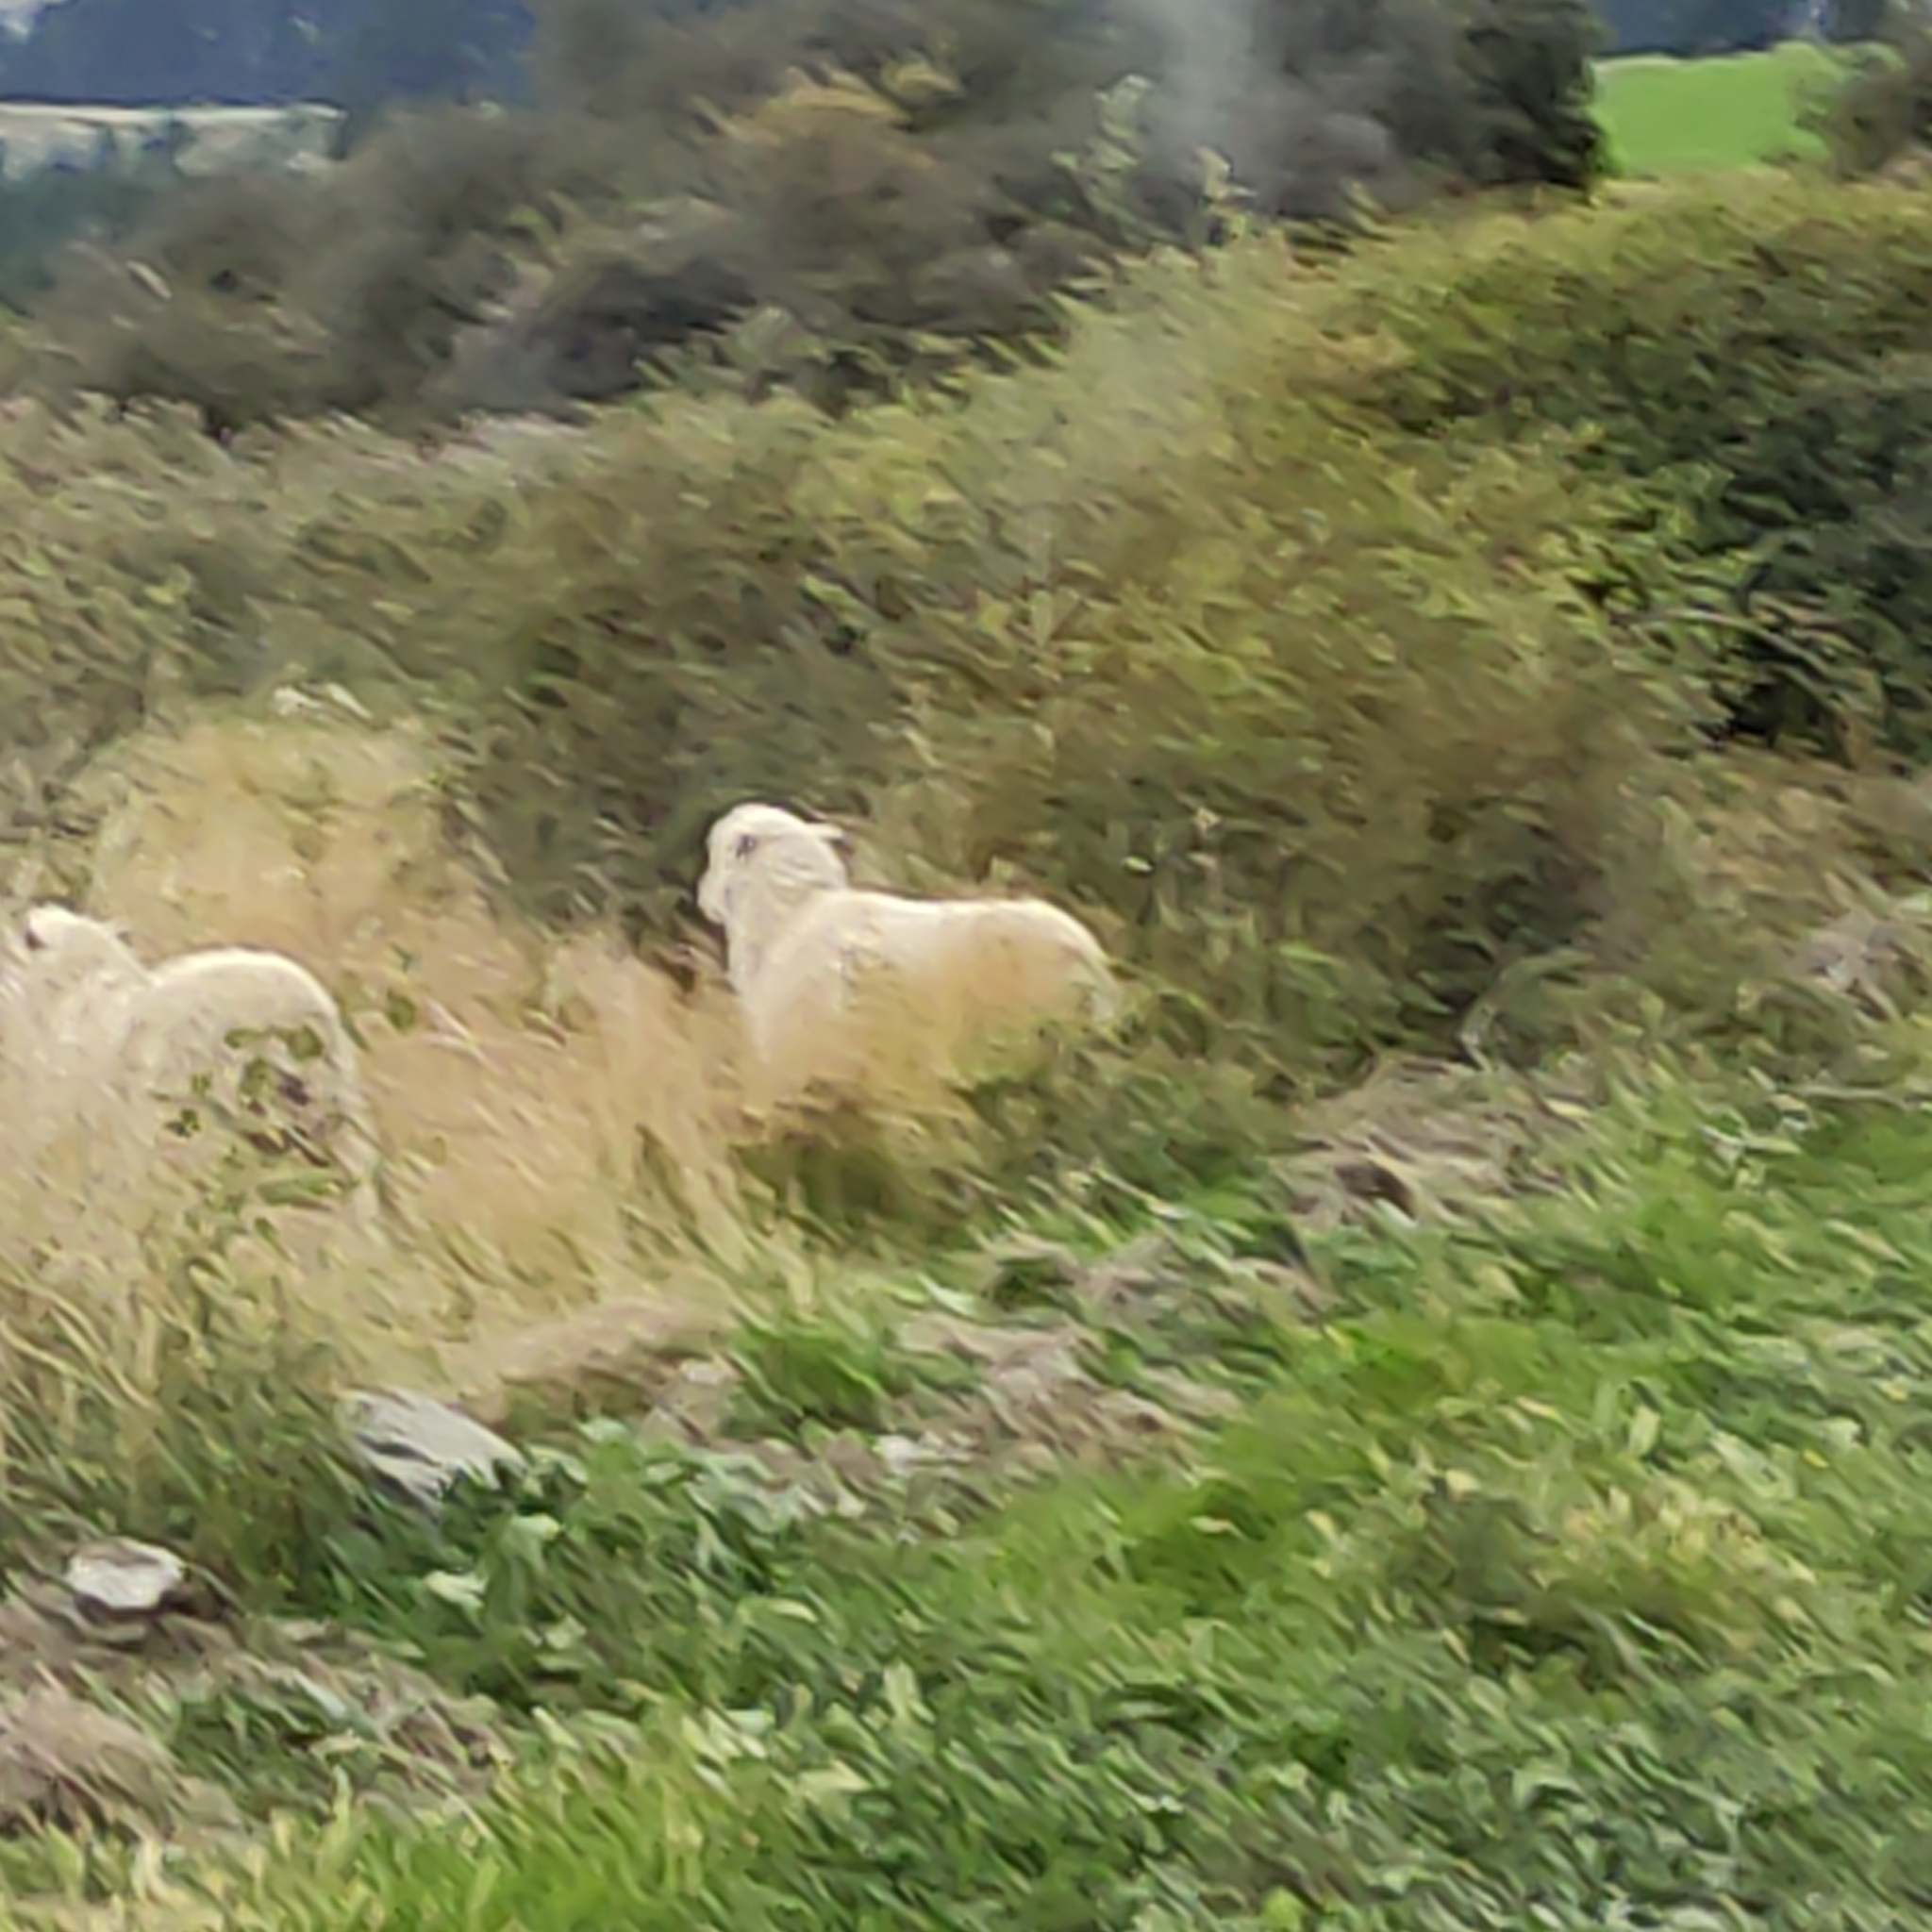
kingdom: Animalia
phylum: Chordata
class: Mammalia
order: Artiodactyla
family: Bovidae
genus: Ovis
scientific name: Ovis aries
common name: Domestic sheep
